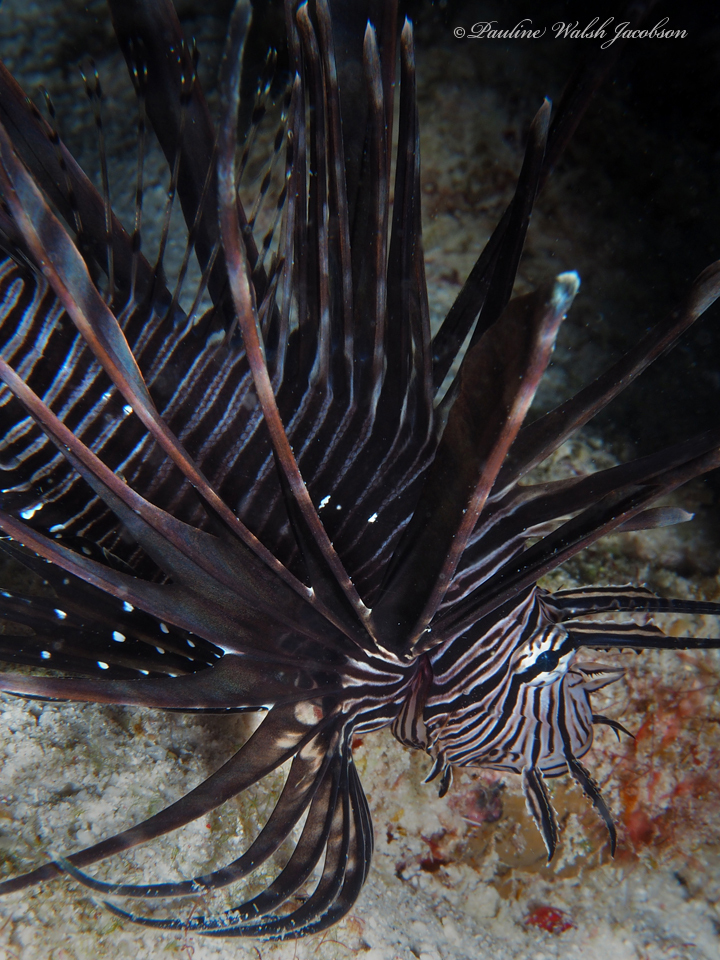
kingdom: Animalia
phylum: Chordata
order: Scorpaeniformes
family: Scorpaenidae
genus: Pterois
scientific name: Pterois volitans
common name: Lionfish
